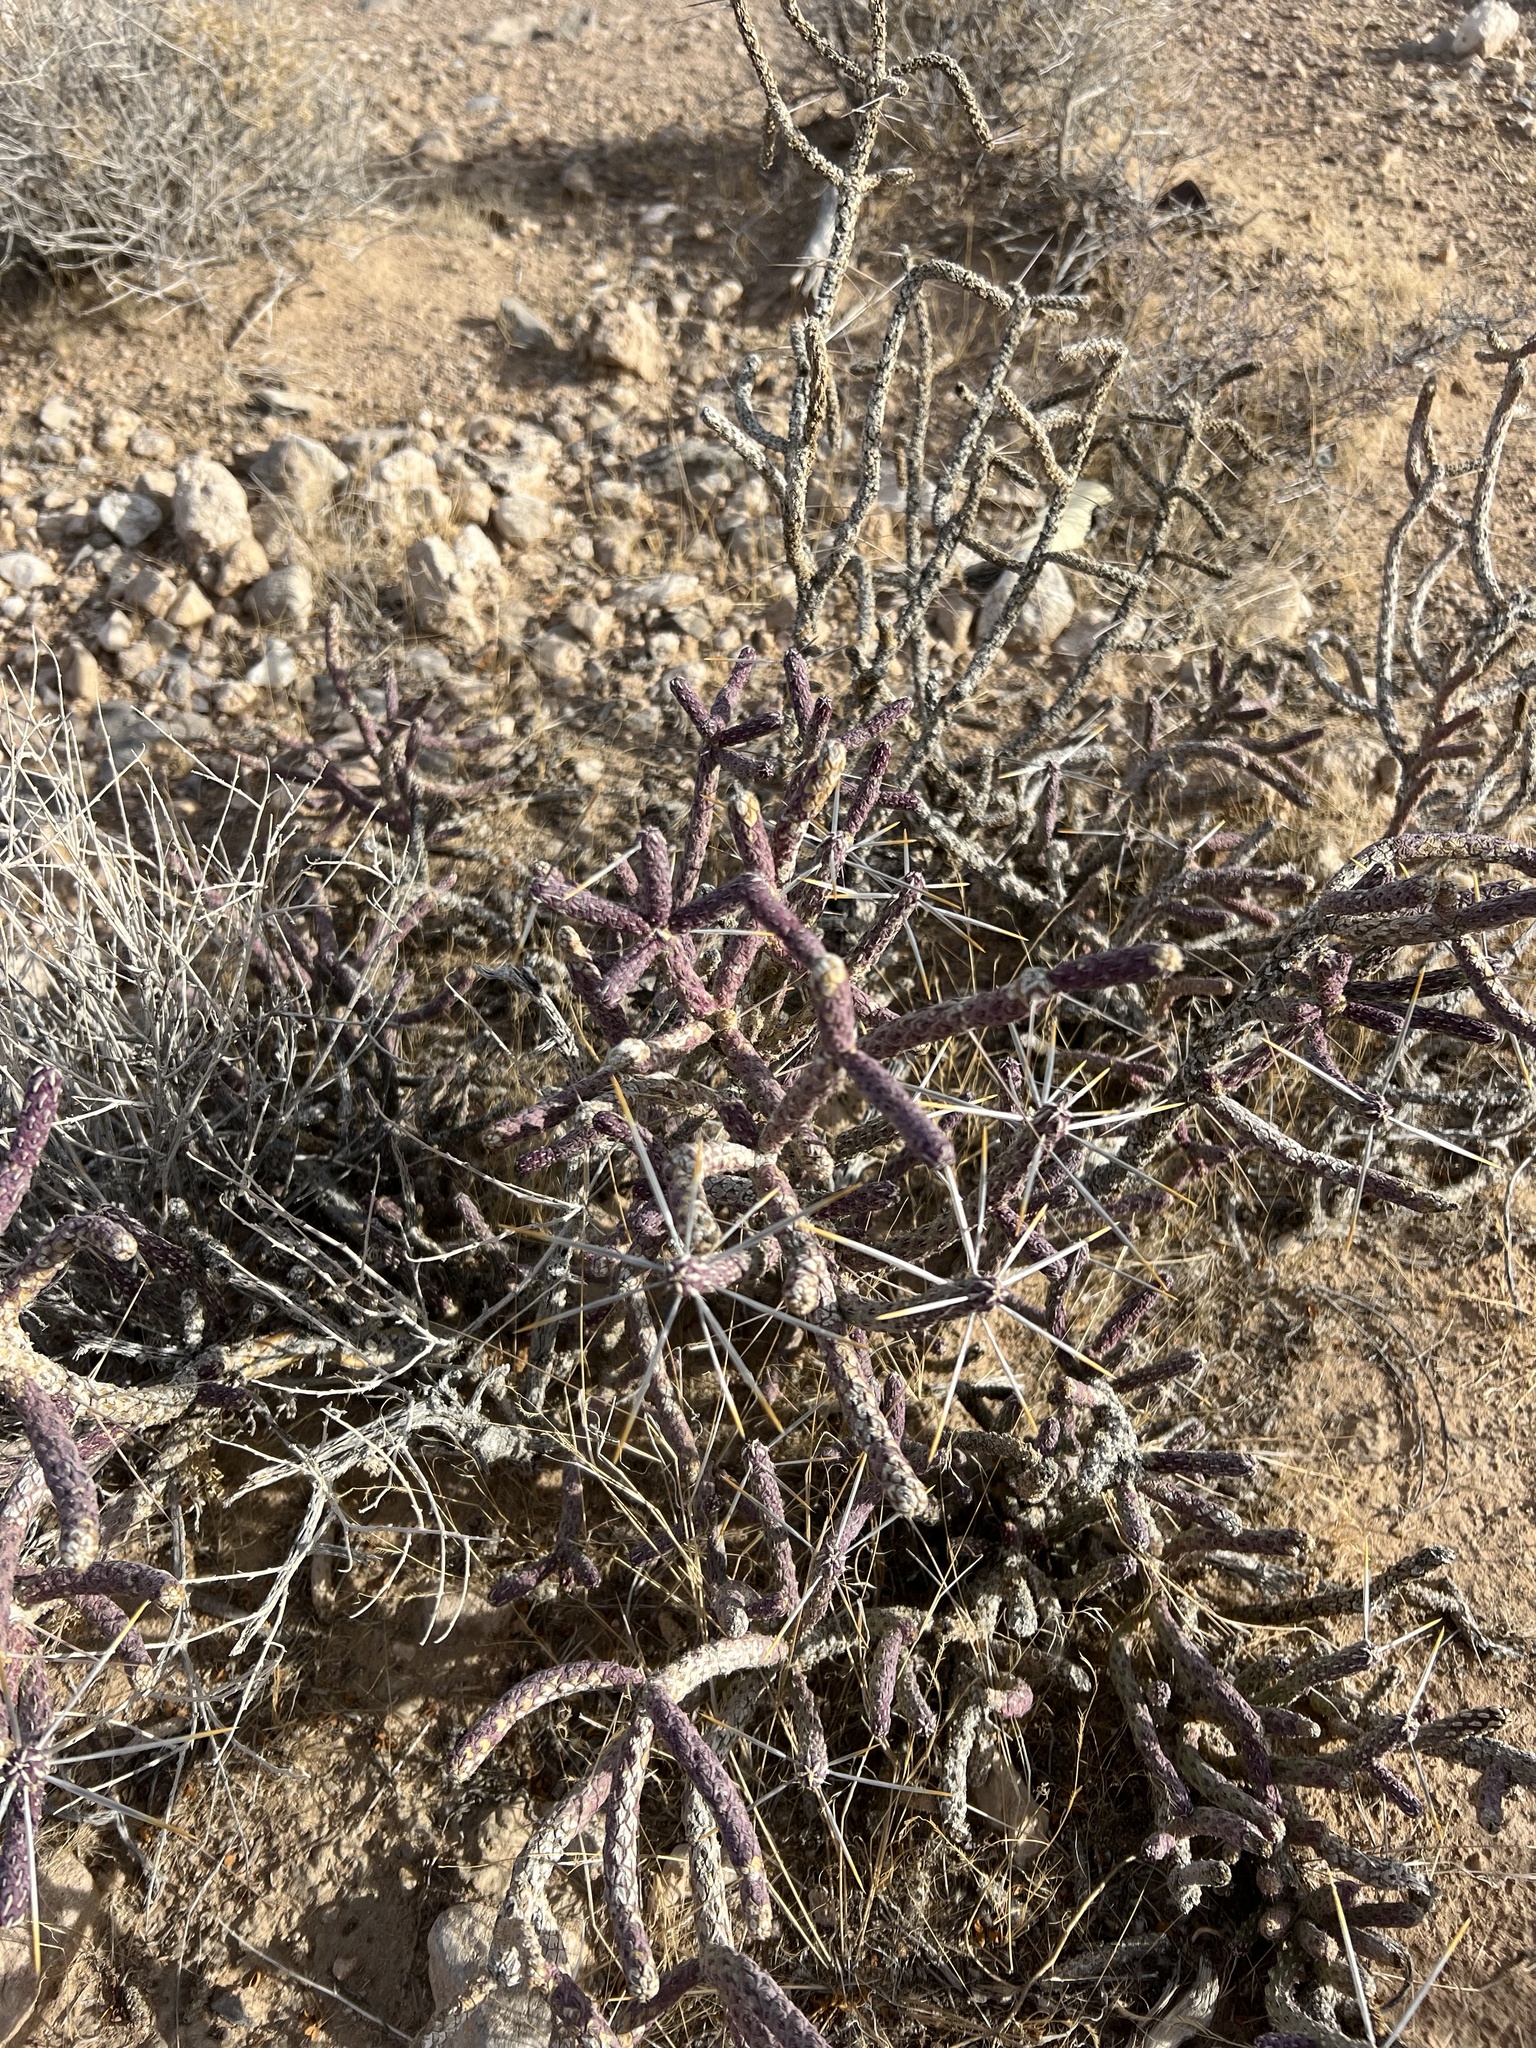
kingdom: Plantae
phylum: Tracheophyta
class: Magnoliopsida
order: Caryophyllales
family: Cactaceae
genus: Cylindropuntia
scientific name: Cylindropuntia ramosissima
